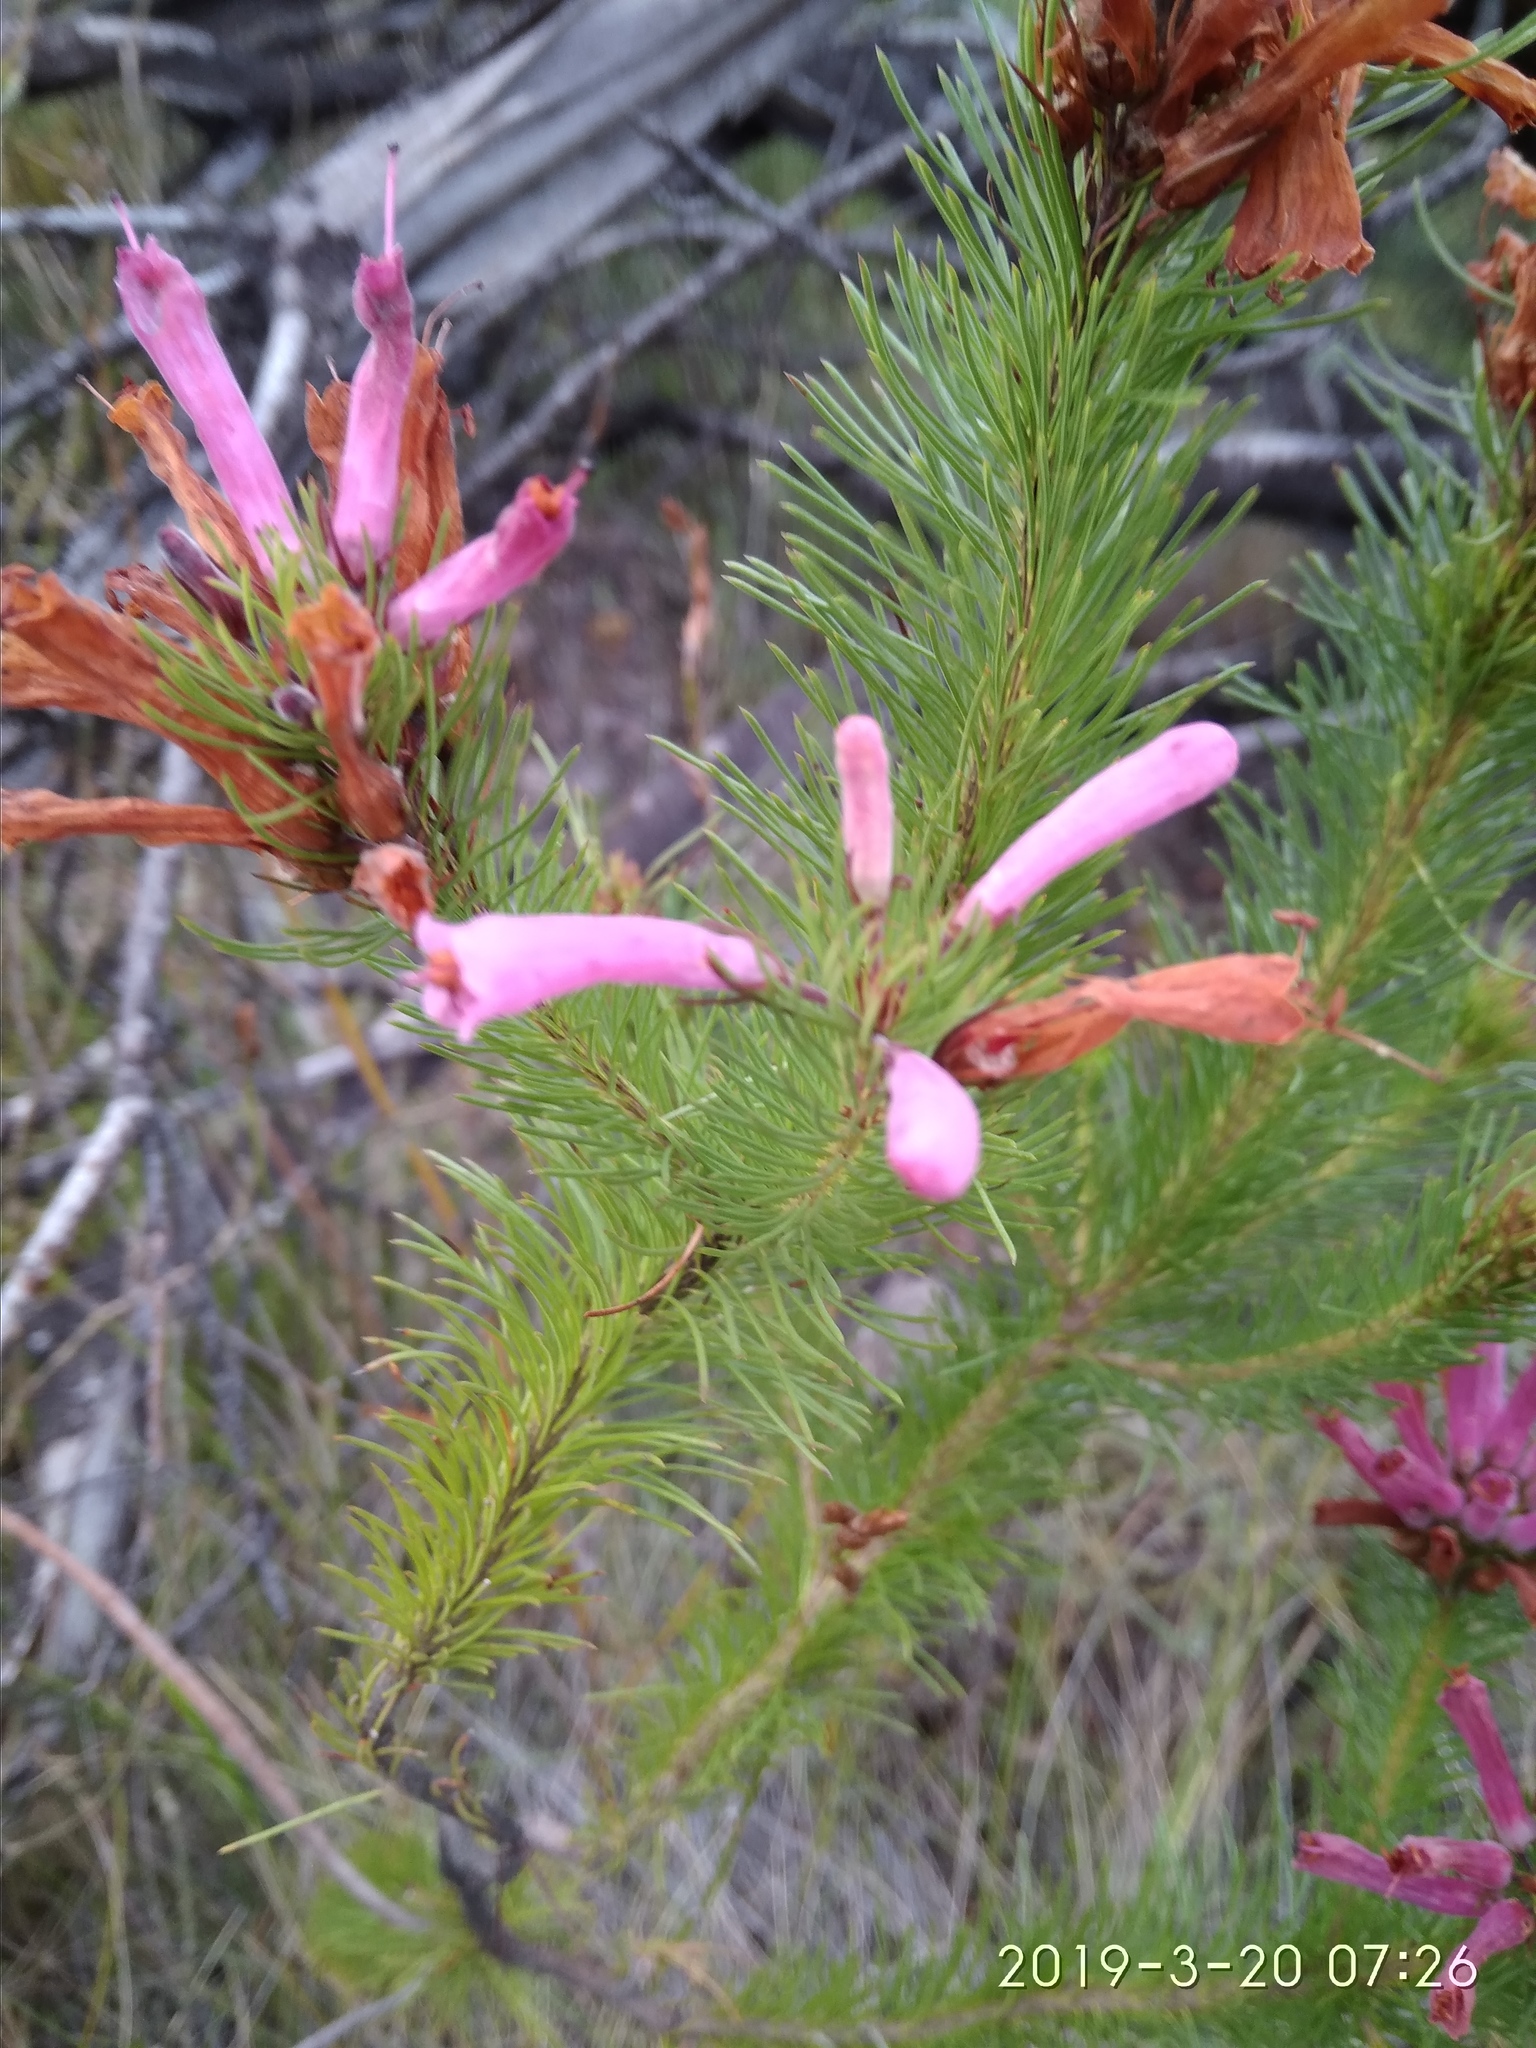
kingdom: Plantae
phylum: Tracheophyta
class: Magnoliopsida
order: Ericales
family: Ericaceae
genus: Erica
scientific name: Erica vestita
